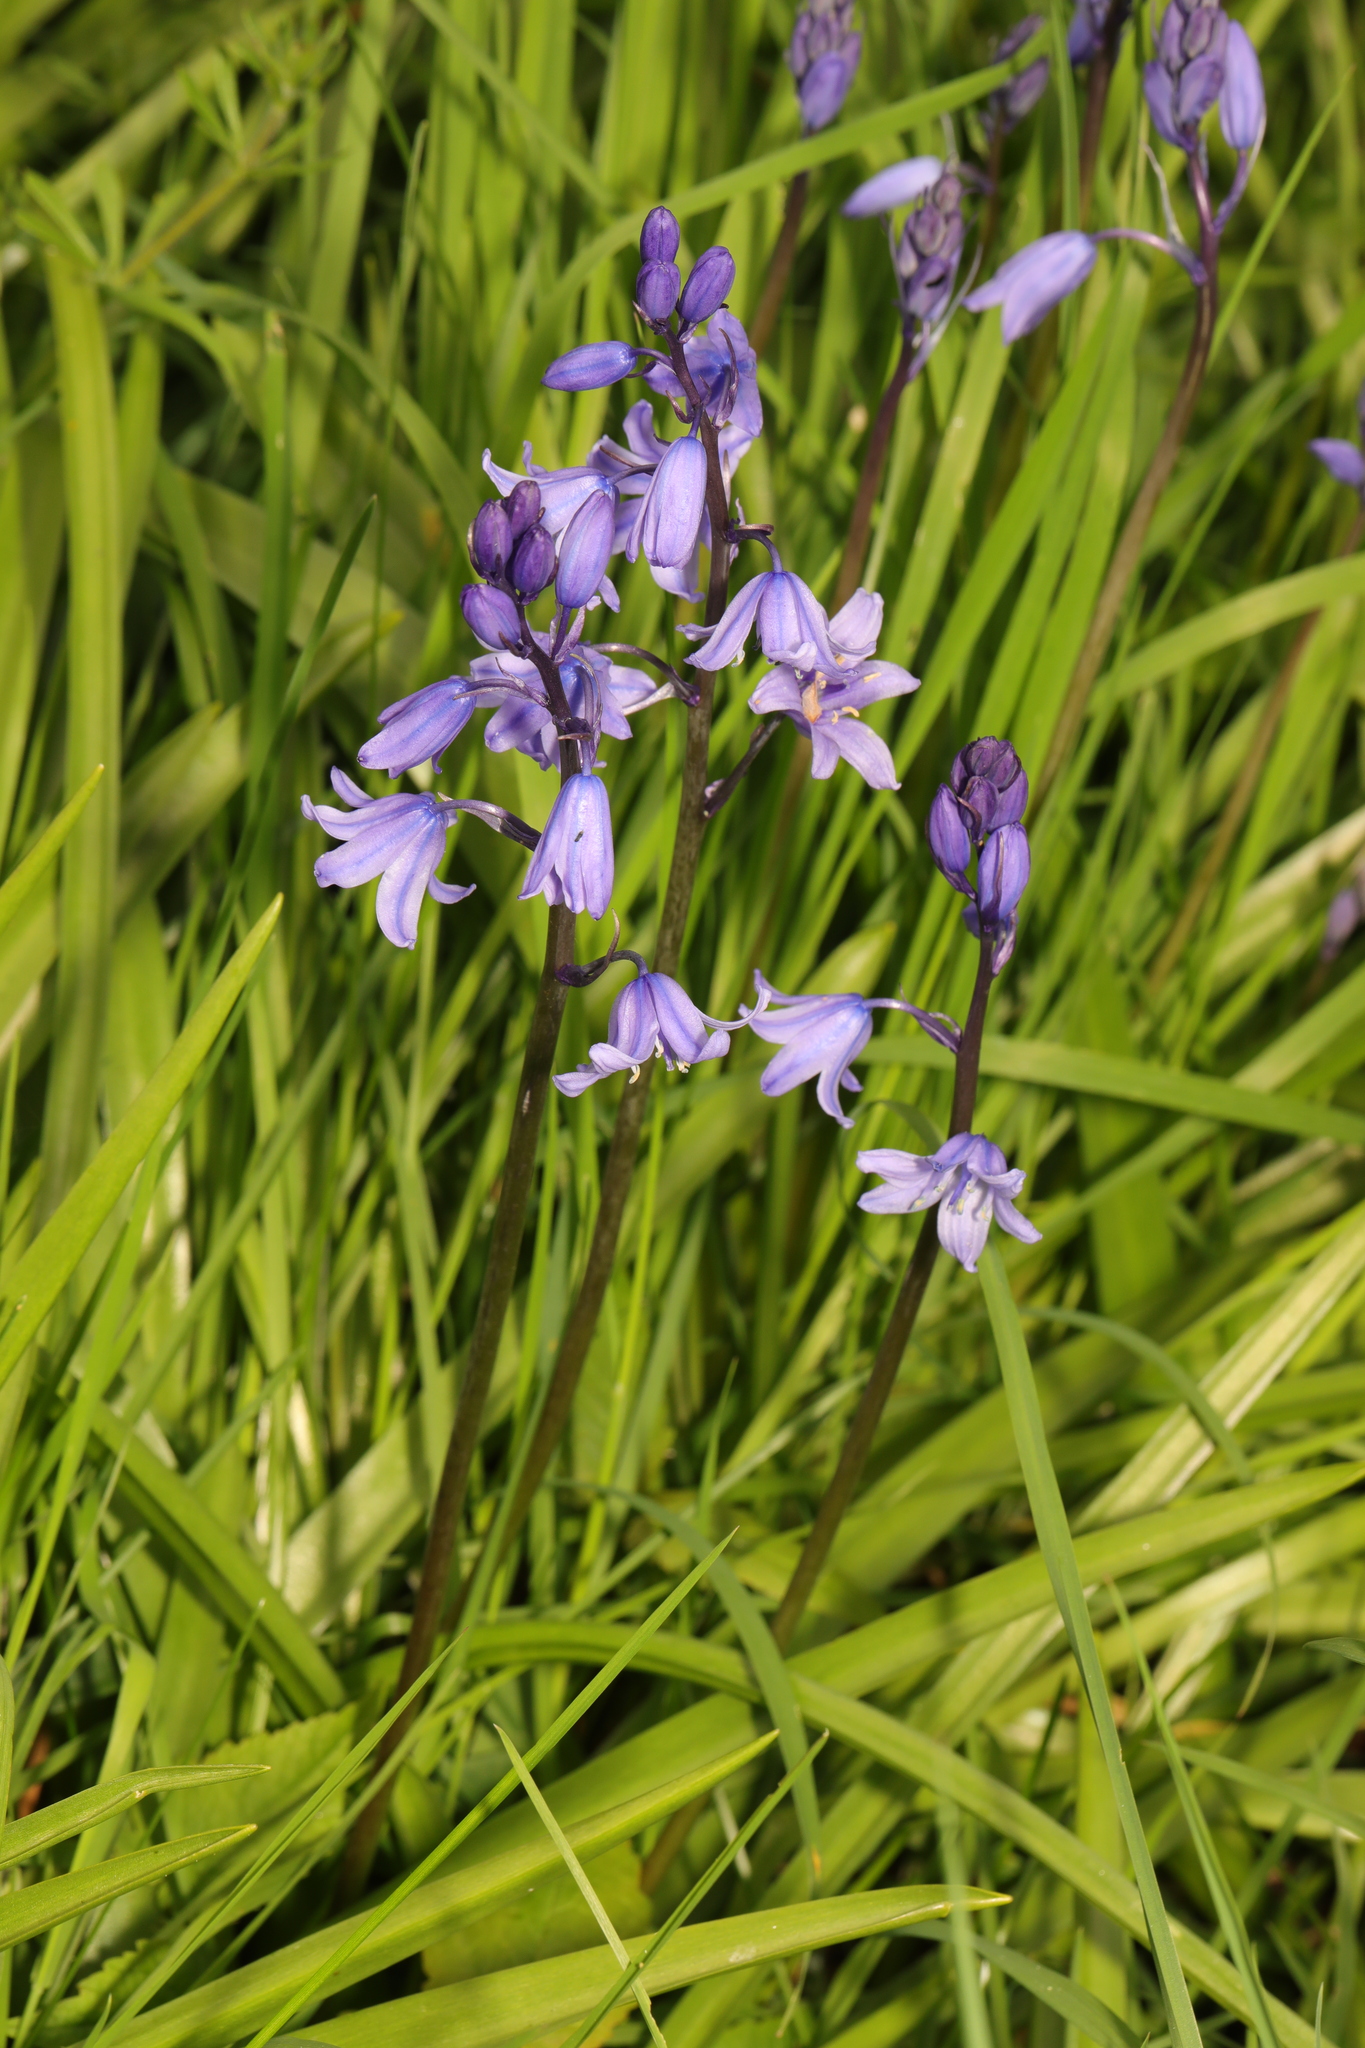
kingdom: Plantae
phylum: Tracheophyta
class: Liliopsida
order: Asparagales
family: Asparagaceae
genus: Hyacinthoides
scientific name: Hyacinthoides massartiana
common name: Hyacinthoides
